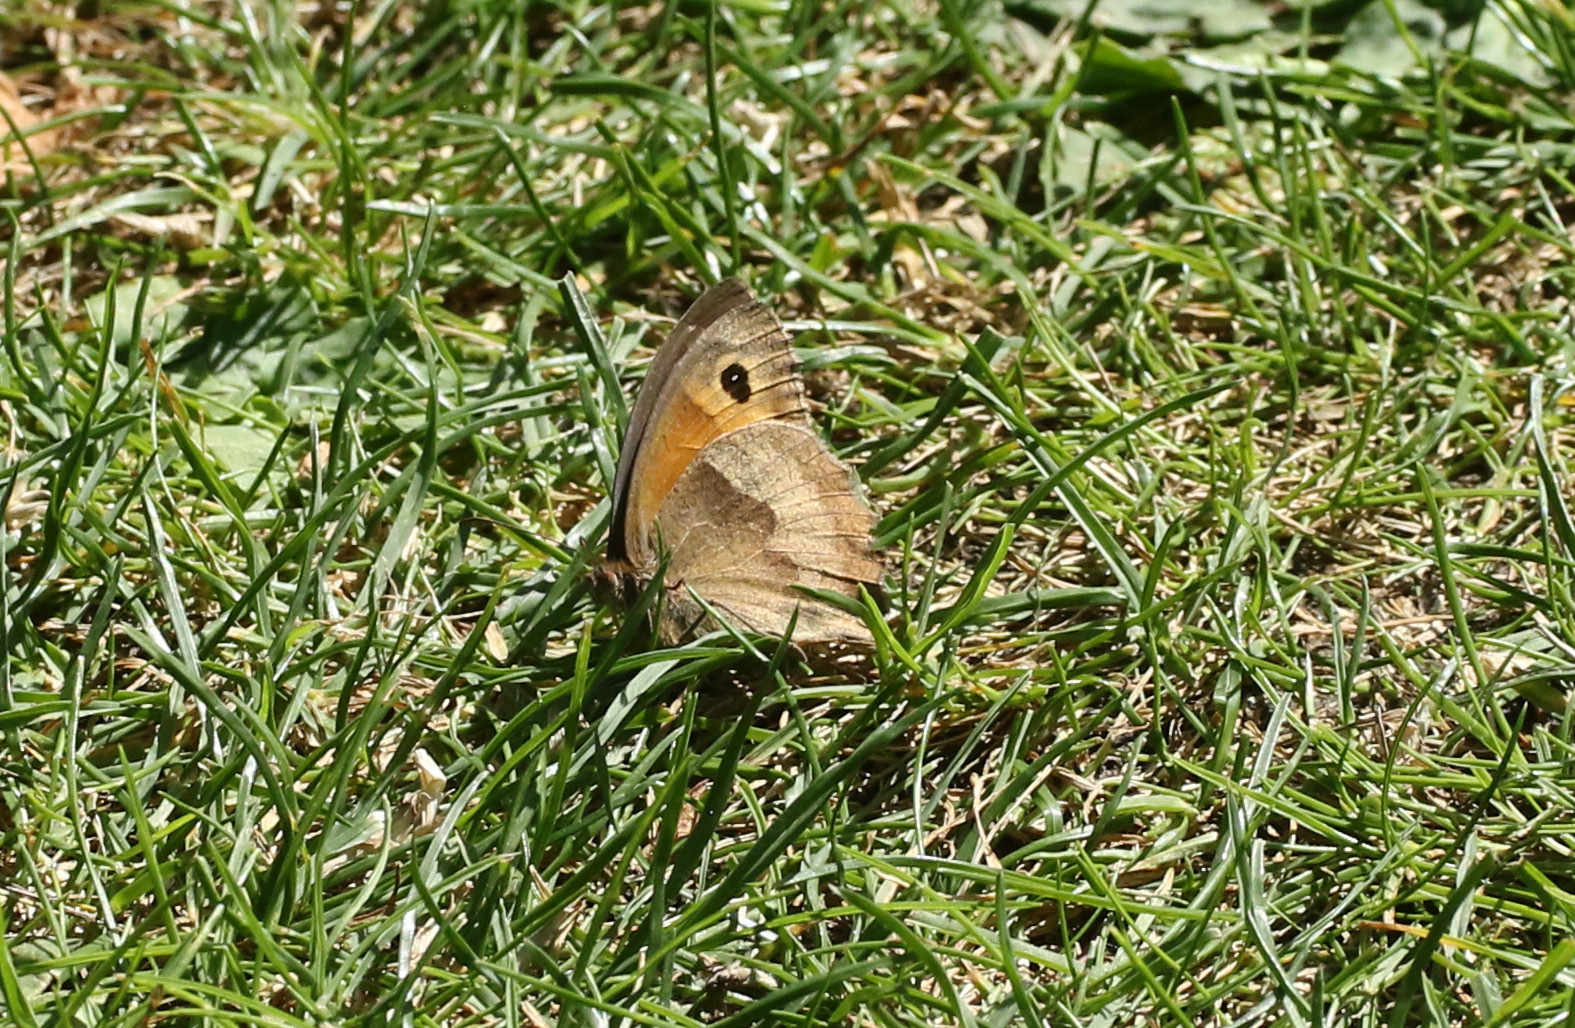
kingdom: Animalia
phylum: Arthropoda
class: Insecta
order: Lepidoptera
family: Nymphalidae
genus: Maniola
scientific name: Maniola jurtina
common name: Meadow brown
